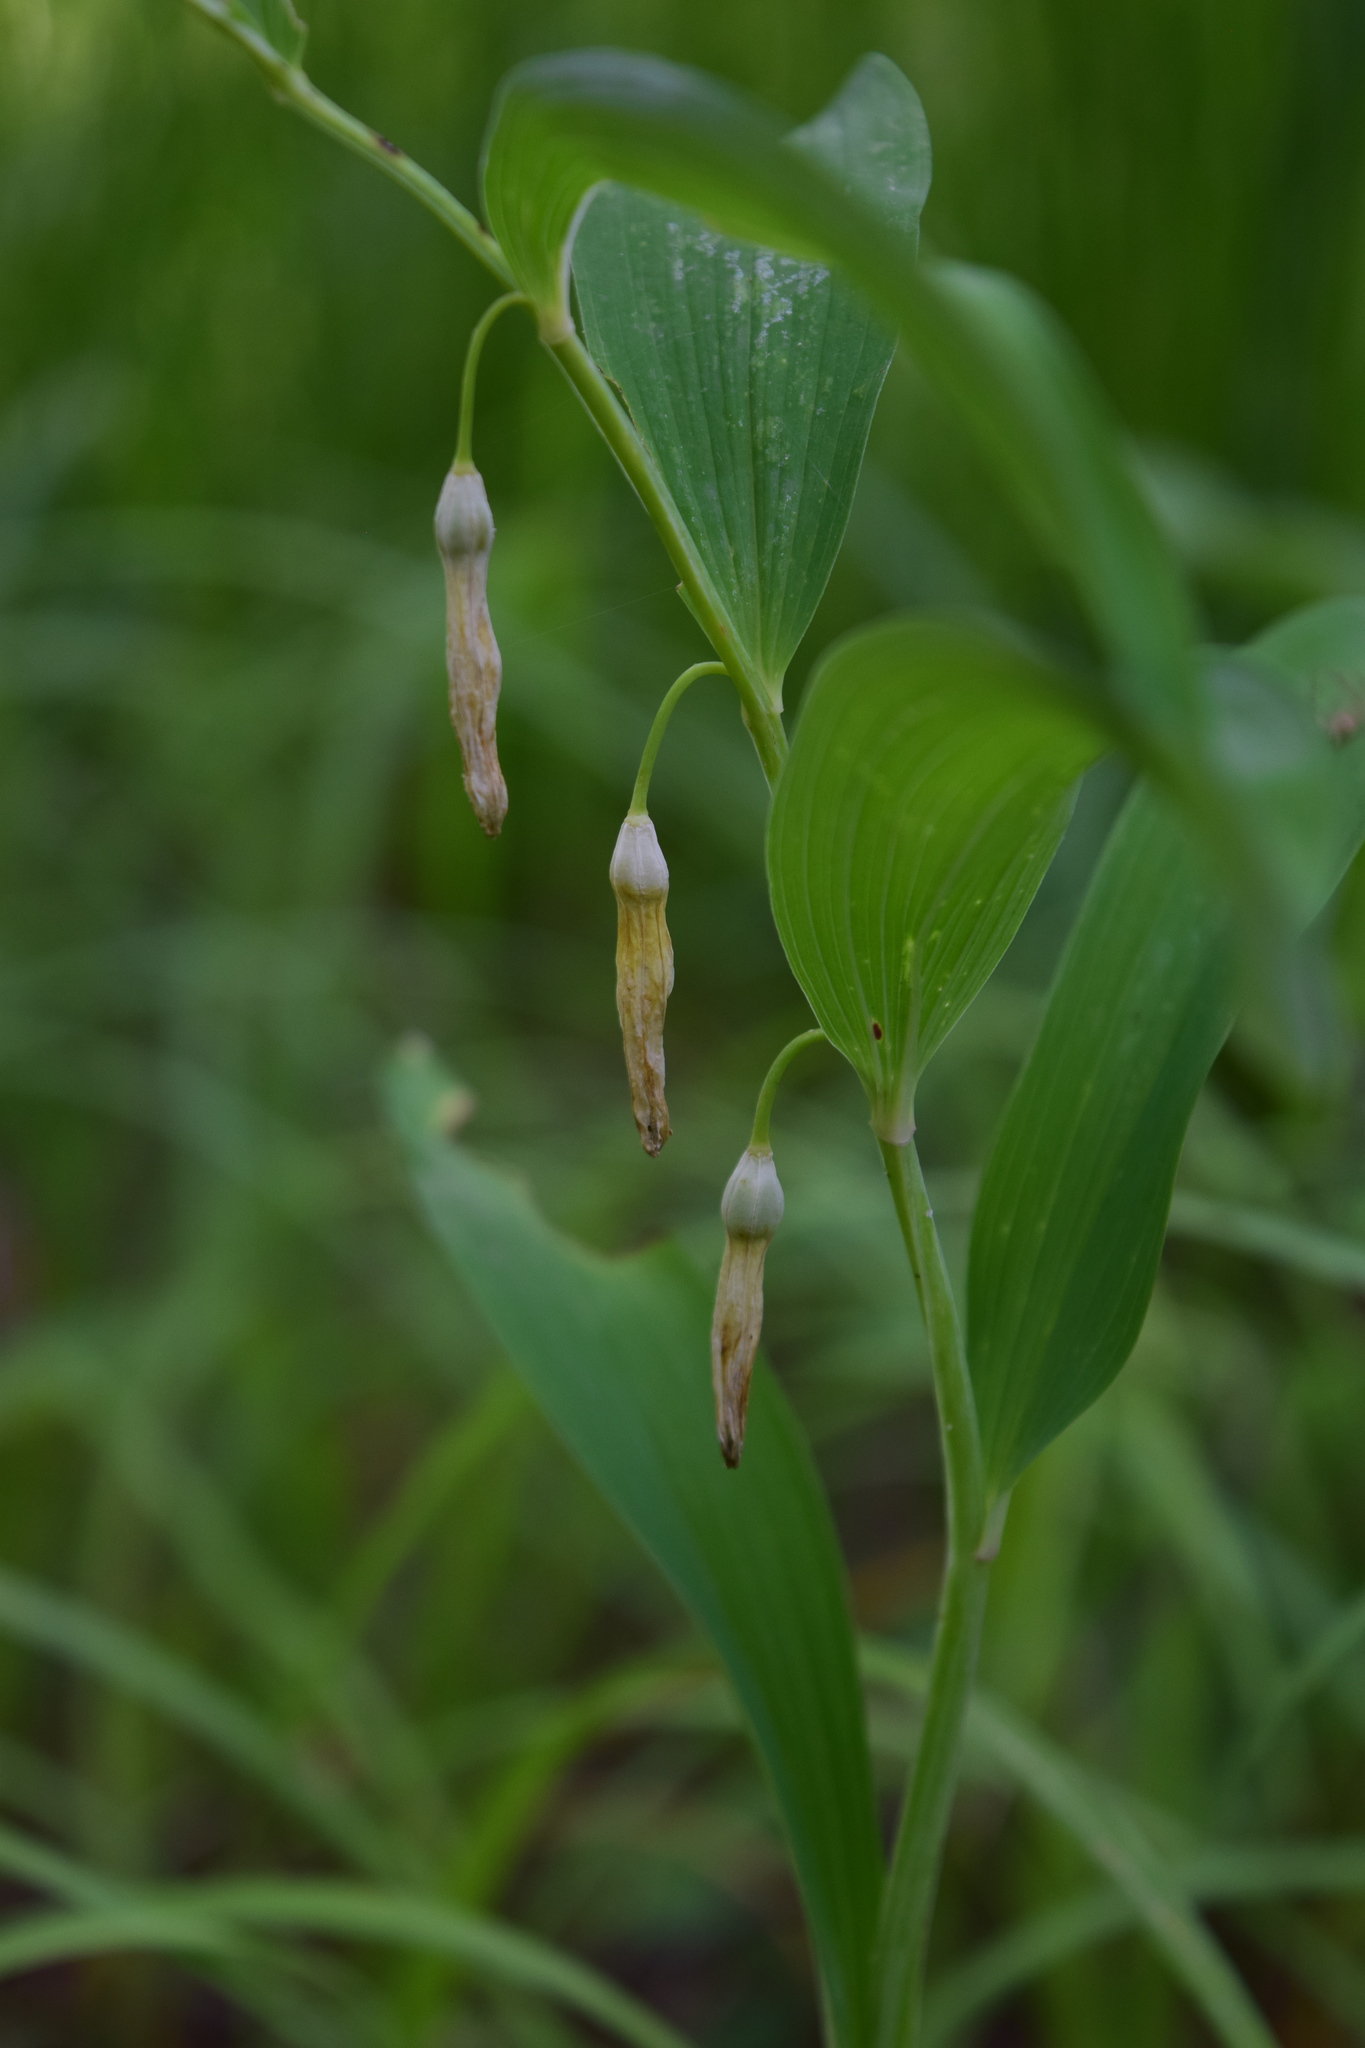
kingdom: Plantae
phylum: Tracheophyta
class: Liliopsida
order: Asparagales
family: Asparagaceae
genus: Polygonatum
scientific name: Polygonatum odoratum
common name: Angular solomon's-seal
